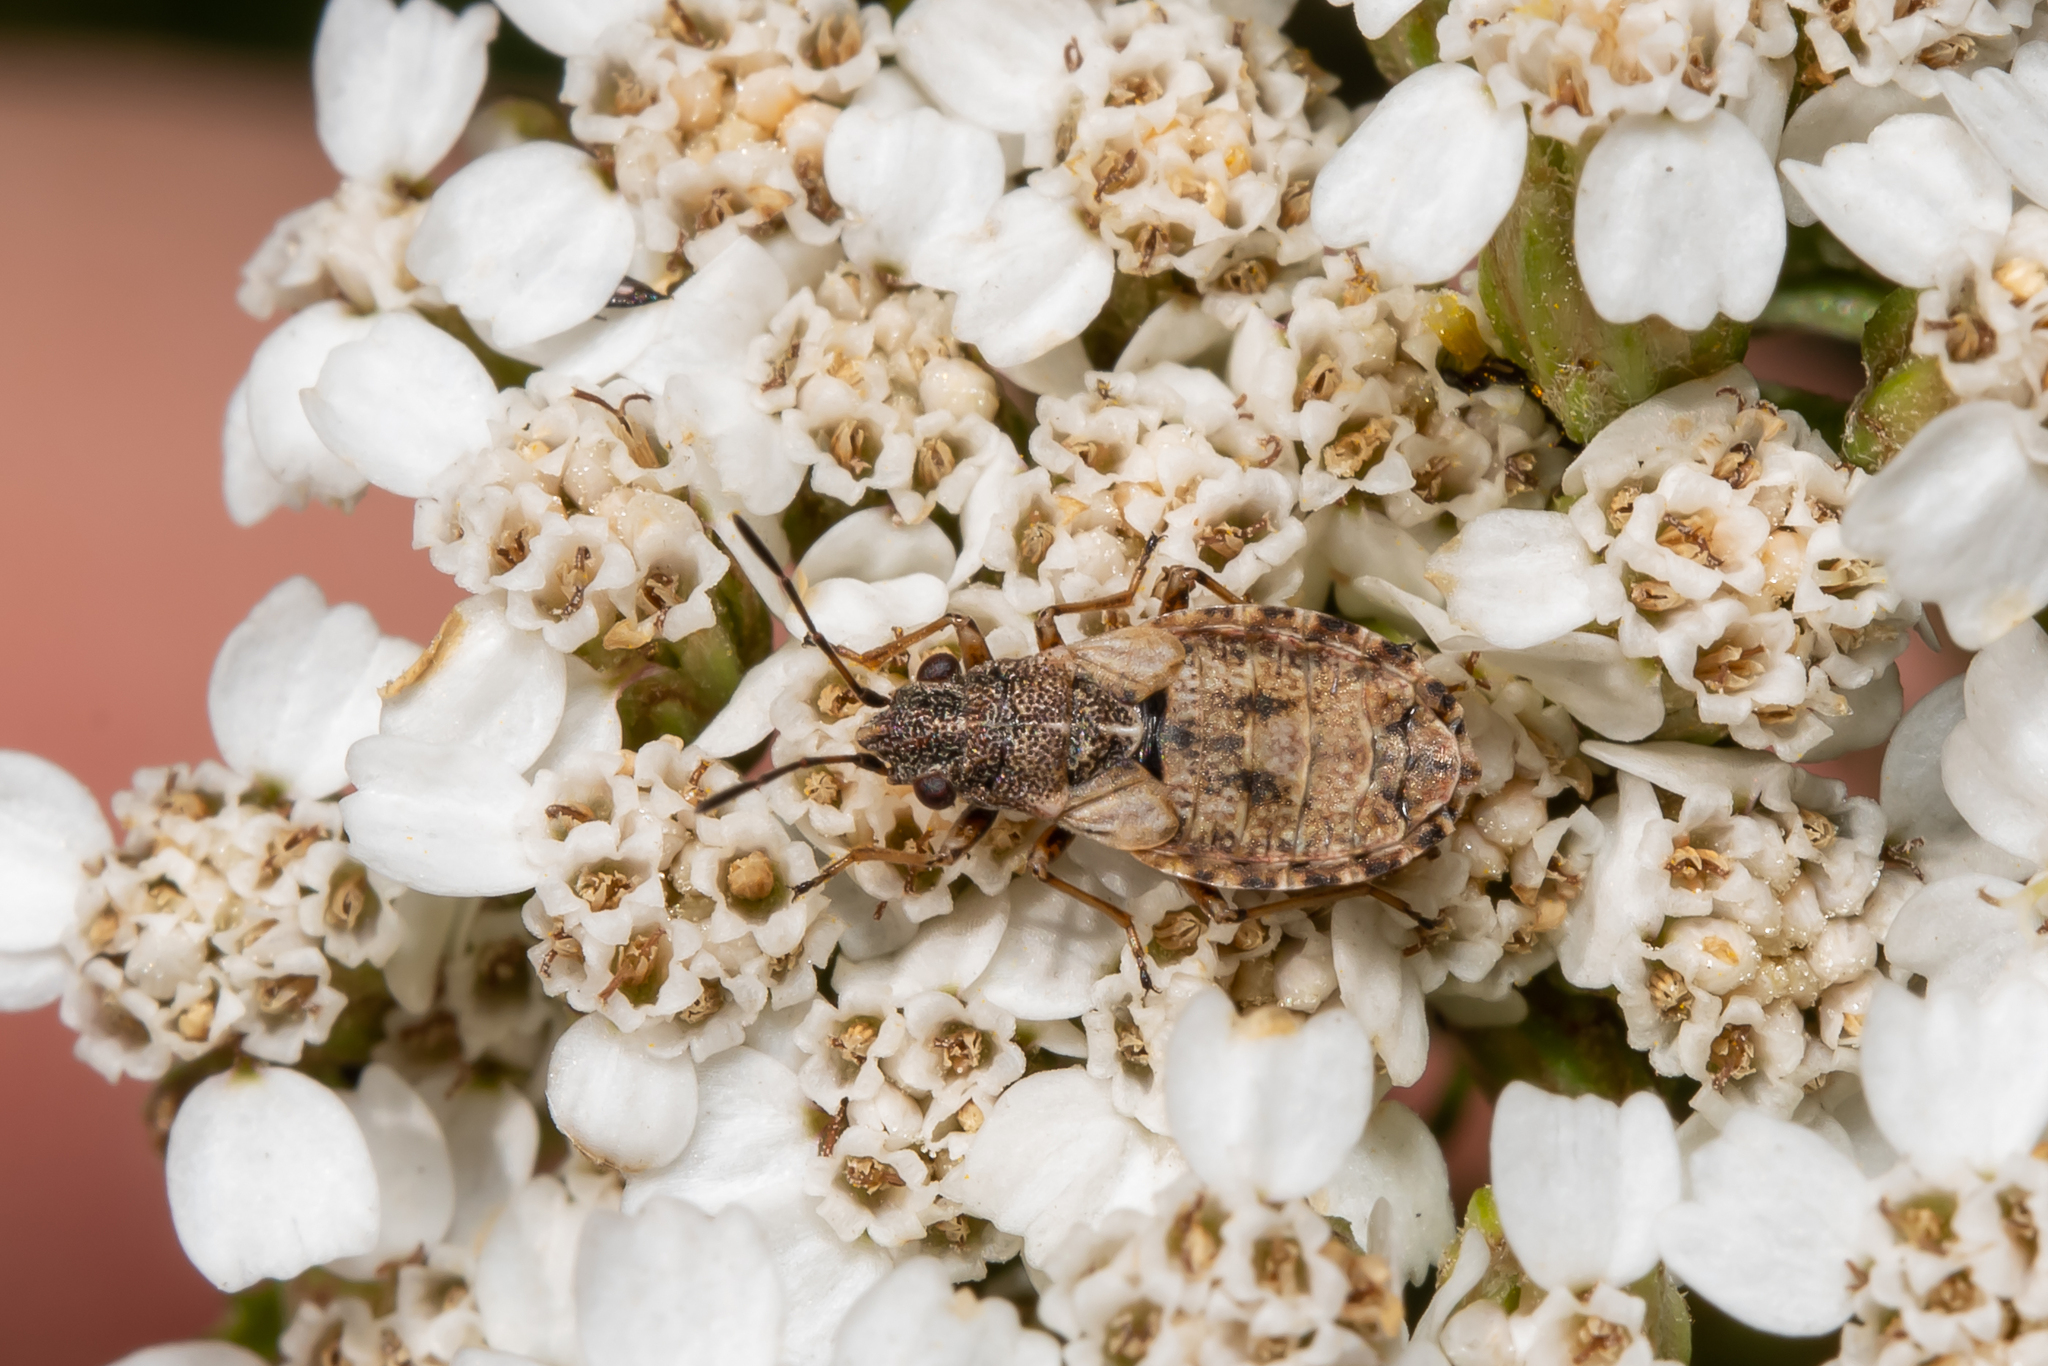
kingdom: Animalia
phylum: Arthropoda
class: Insecta
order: Hemiptera
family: Lygaeidae
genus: Nithecus
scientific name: Nithecus jacobaeae
